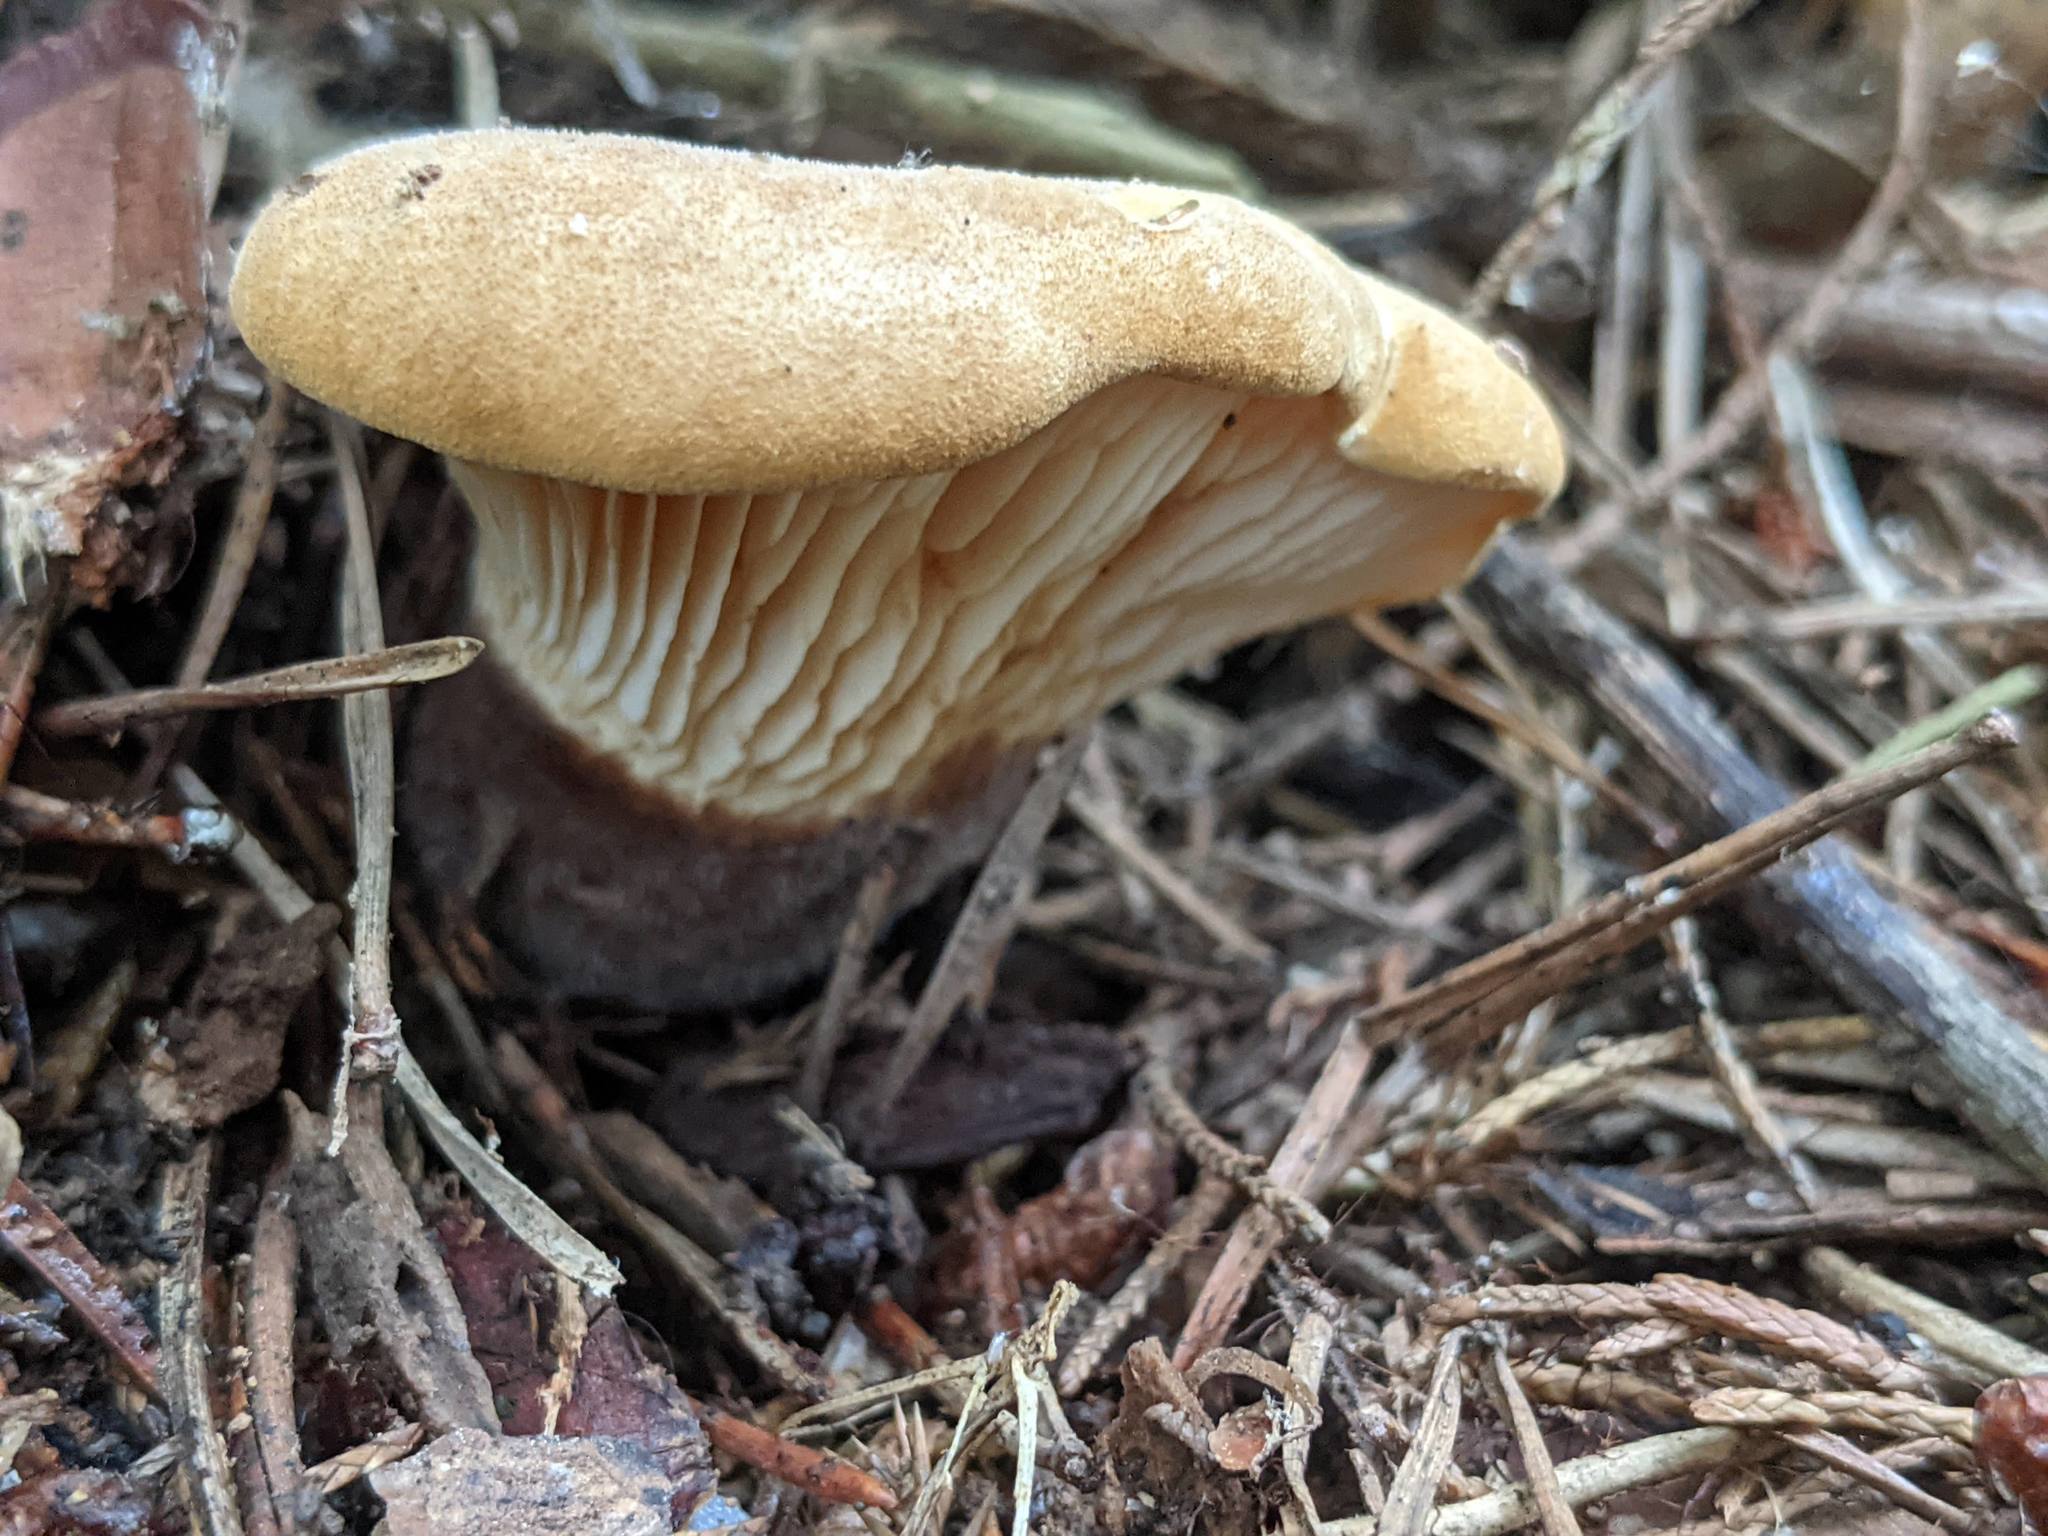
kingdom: Fungi
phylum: Basidiomycota
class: Agaricomycetes
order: Boletales
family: Tapinellaceae
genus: Tapinella
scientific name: Tapinella atrotomentosa
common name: Velvet rollrim
